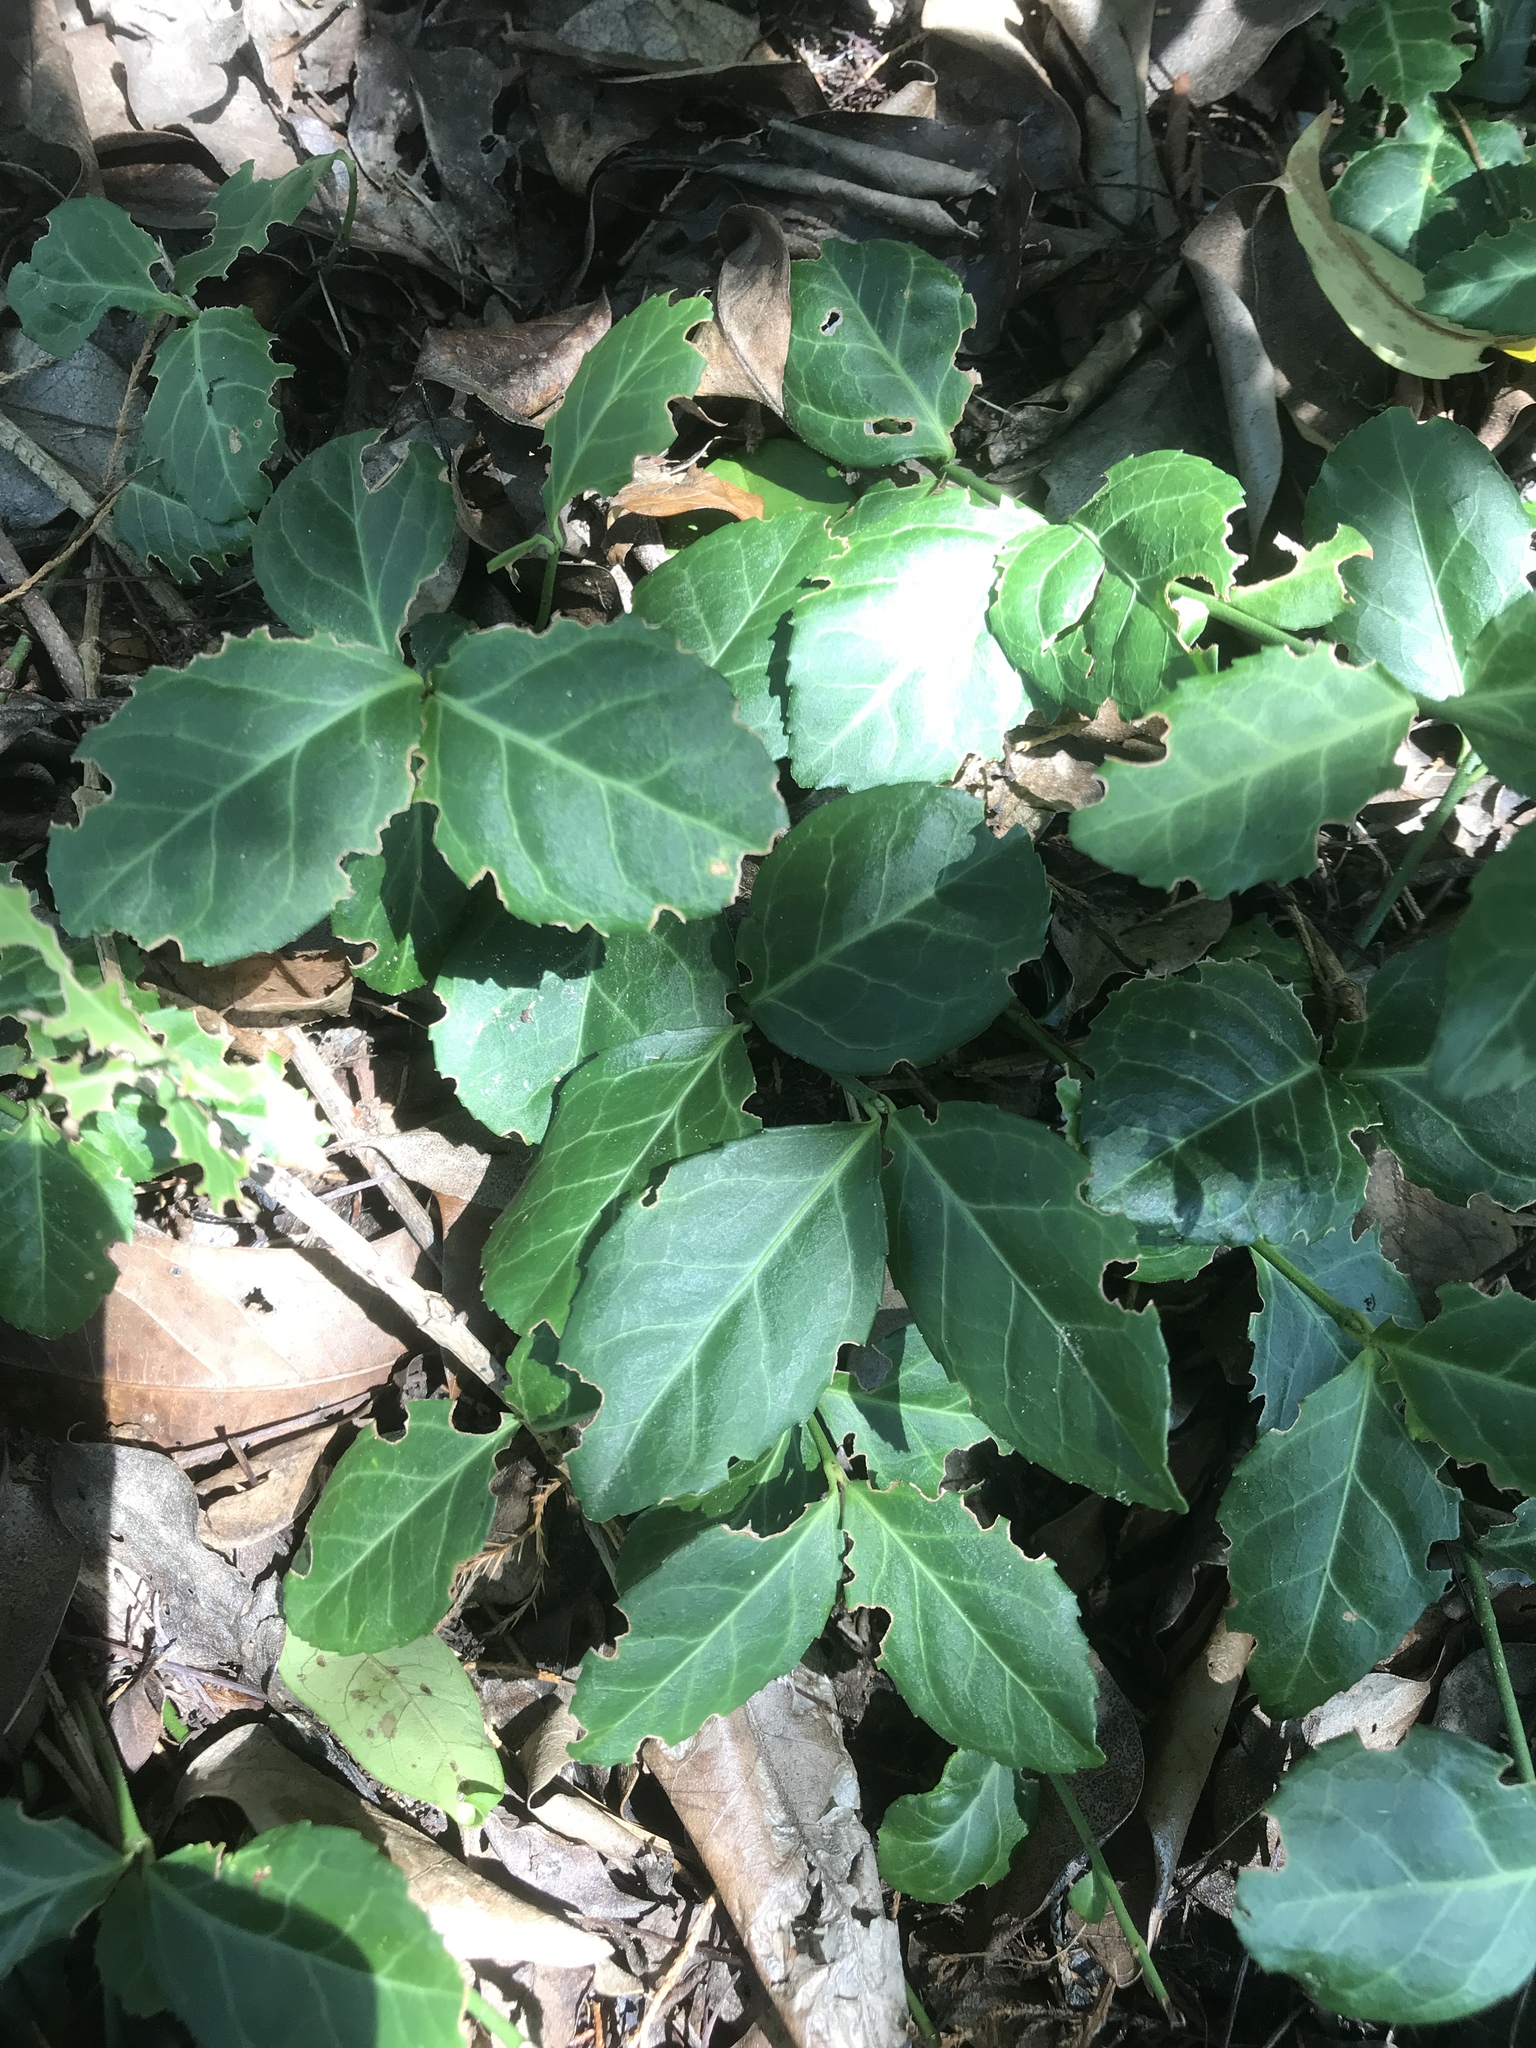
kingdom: Plantae
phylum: Tracheophyta
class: Magnoliopsida
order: Celastrales
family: Celastraceae
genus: Euonymus
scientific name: Euonymus fortunei
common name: Climbing euonymus
